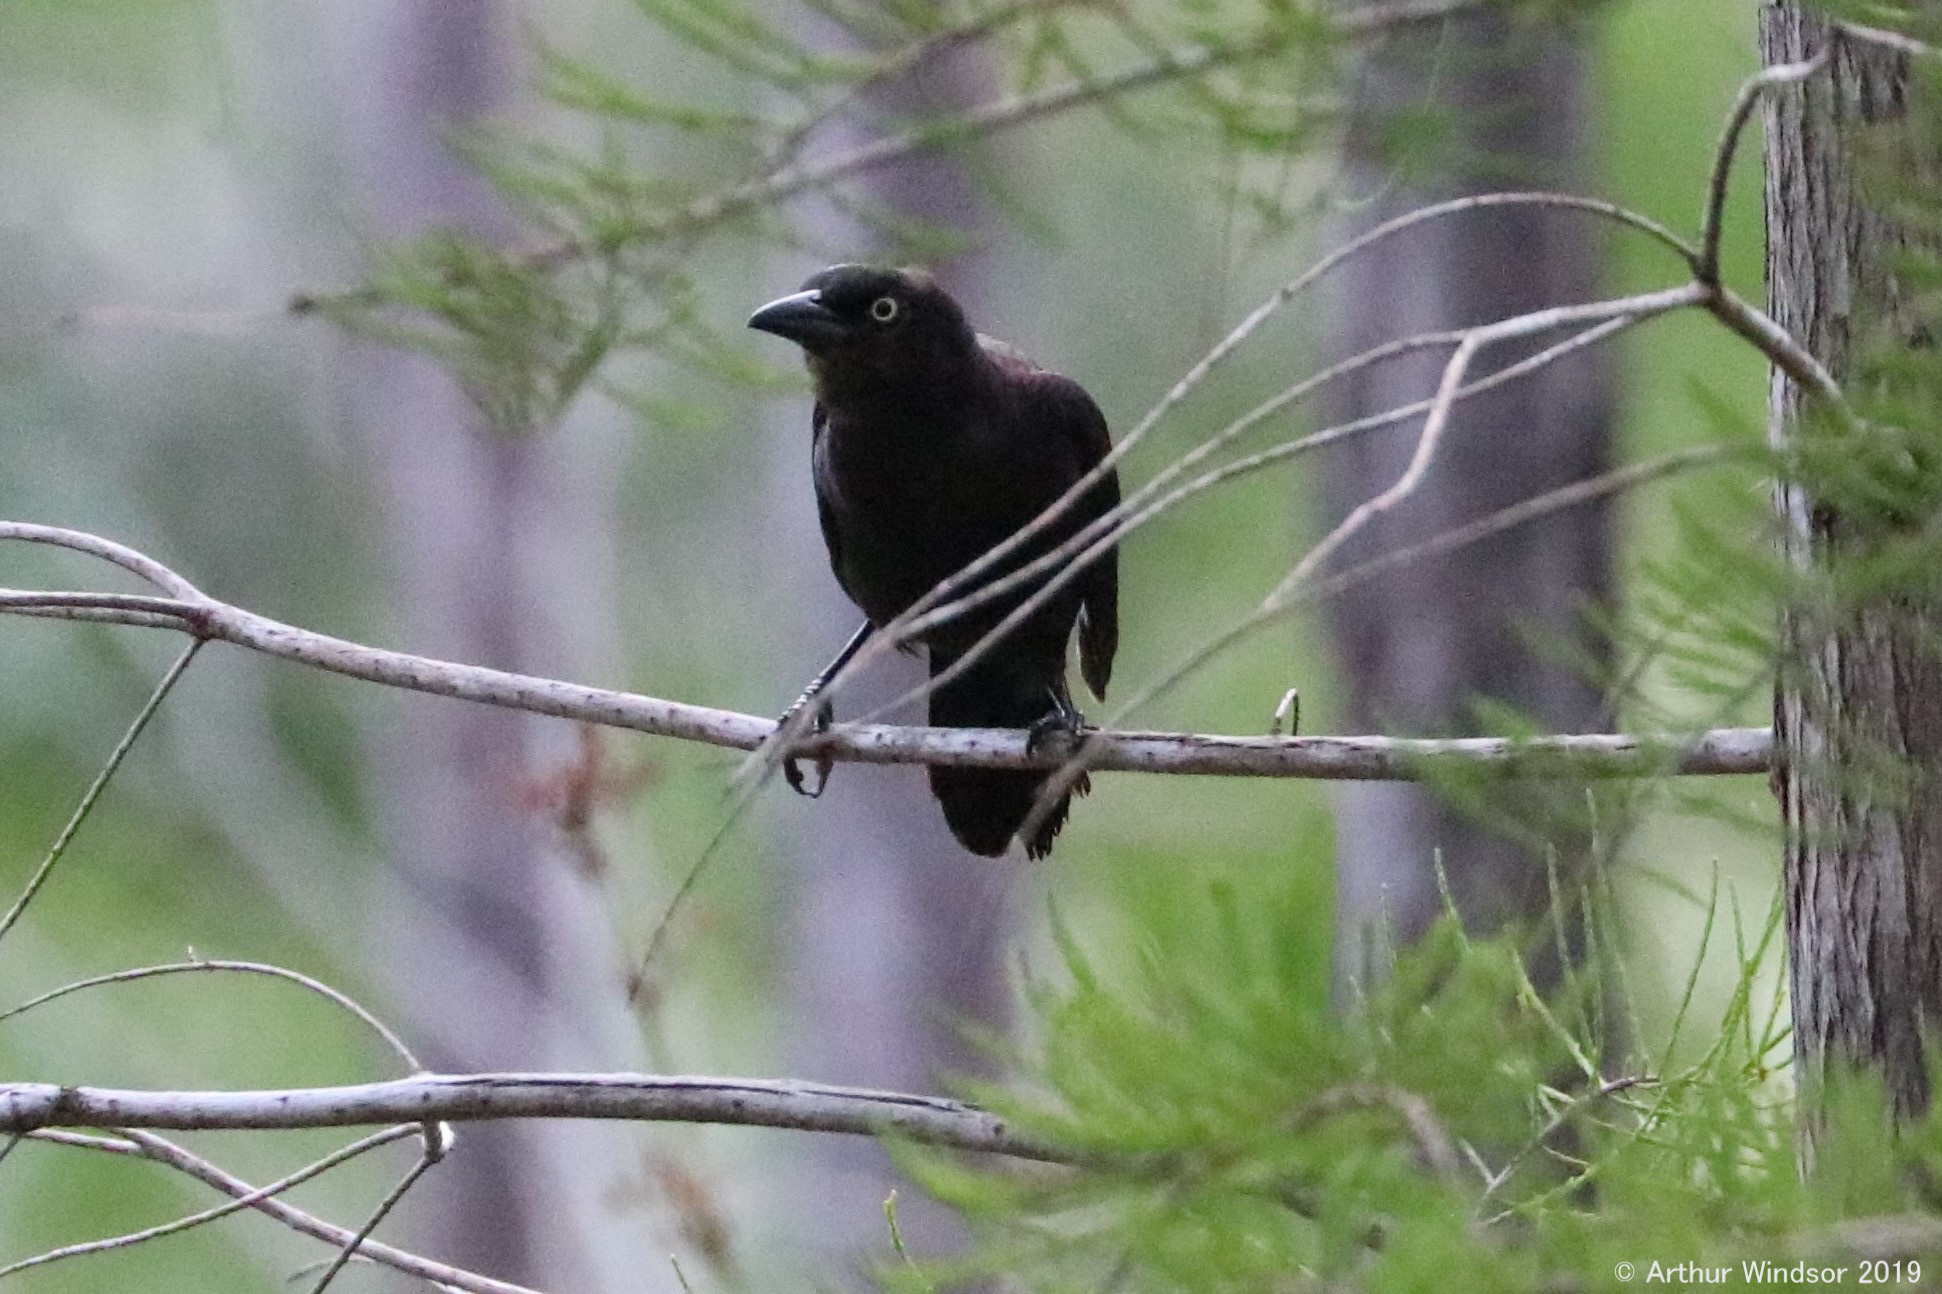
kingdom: Animalia
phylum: Chordata
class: Aves
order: Passeriformes
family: Icteridae
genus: Quiscalus
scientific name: Quiscalus quiscula
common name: Common grackle
